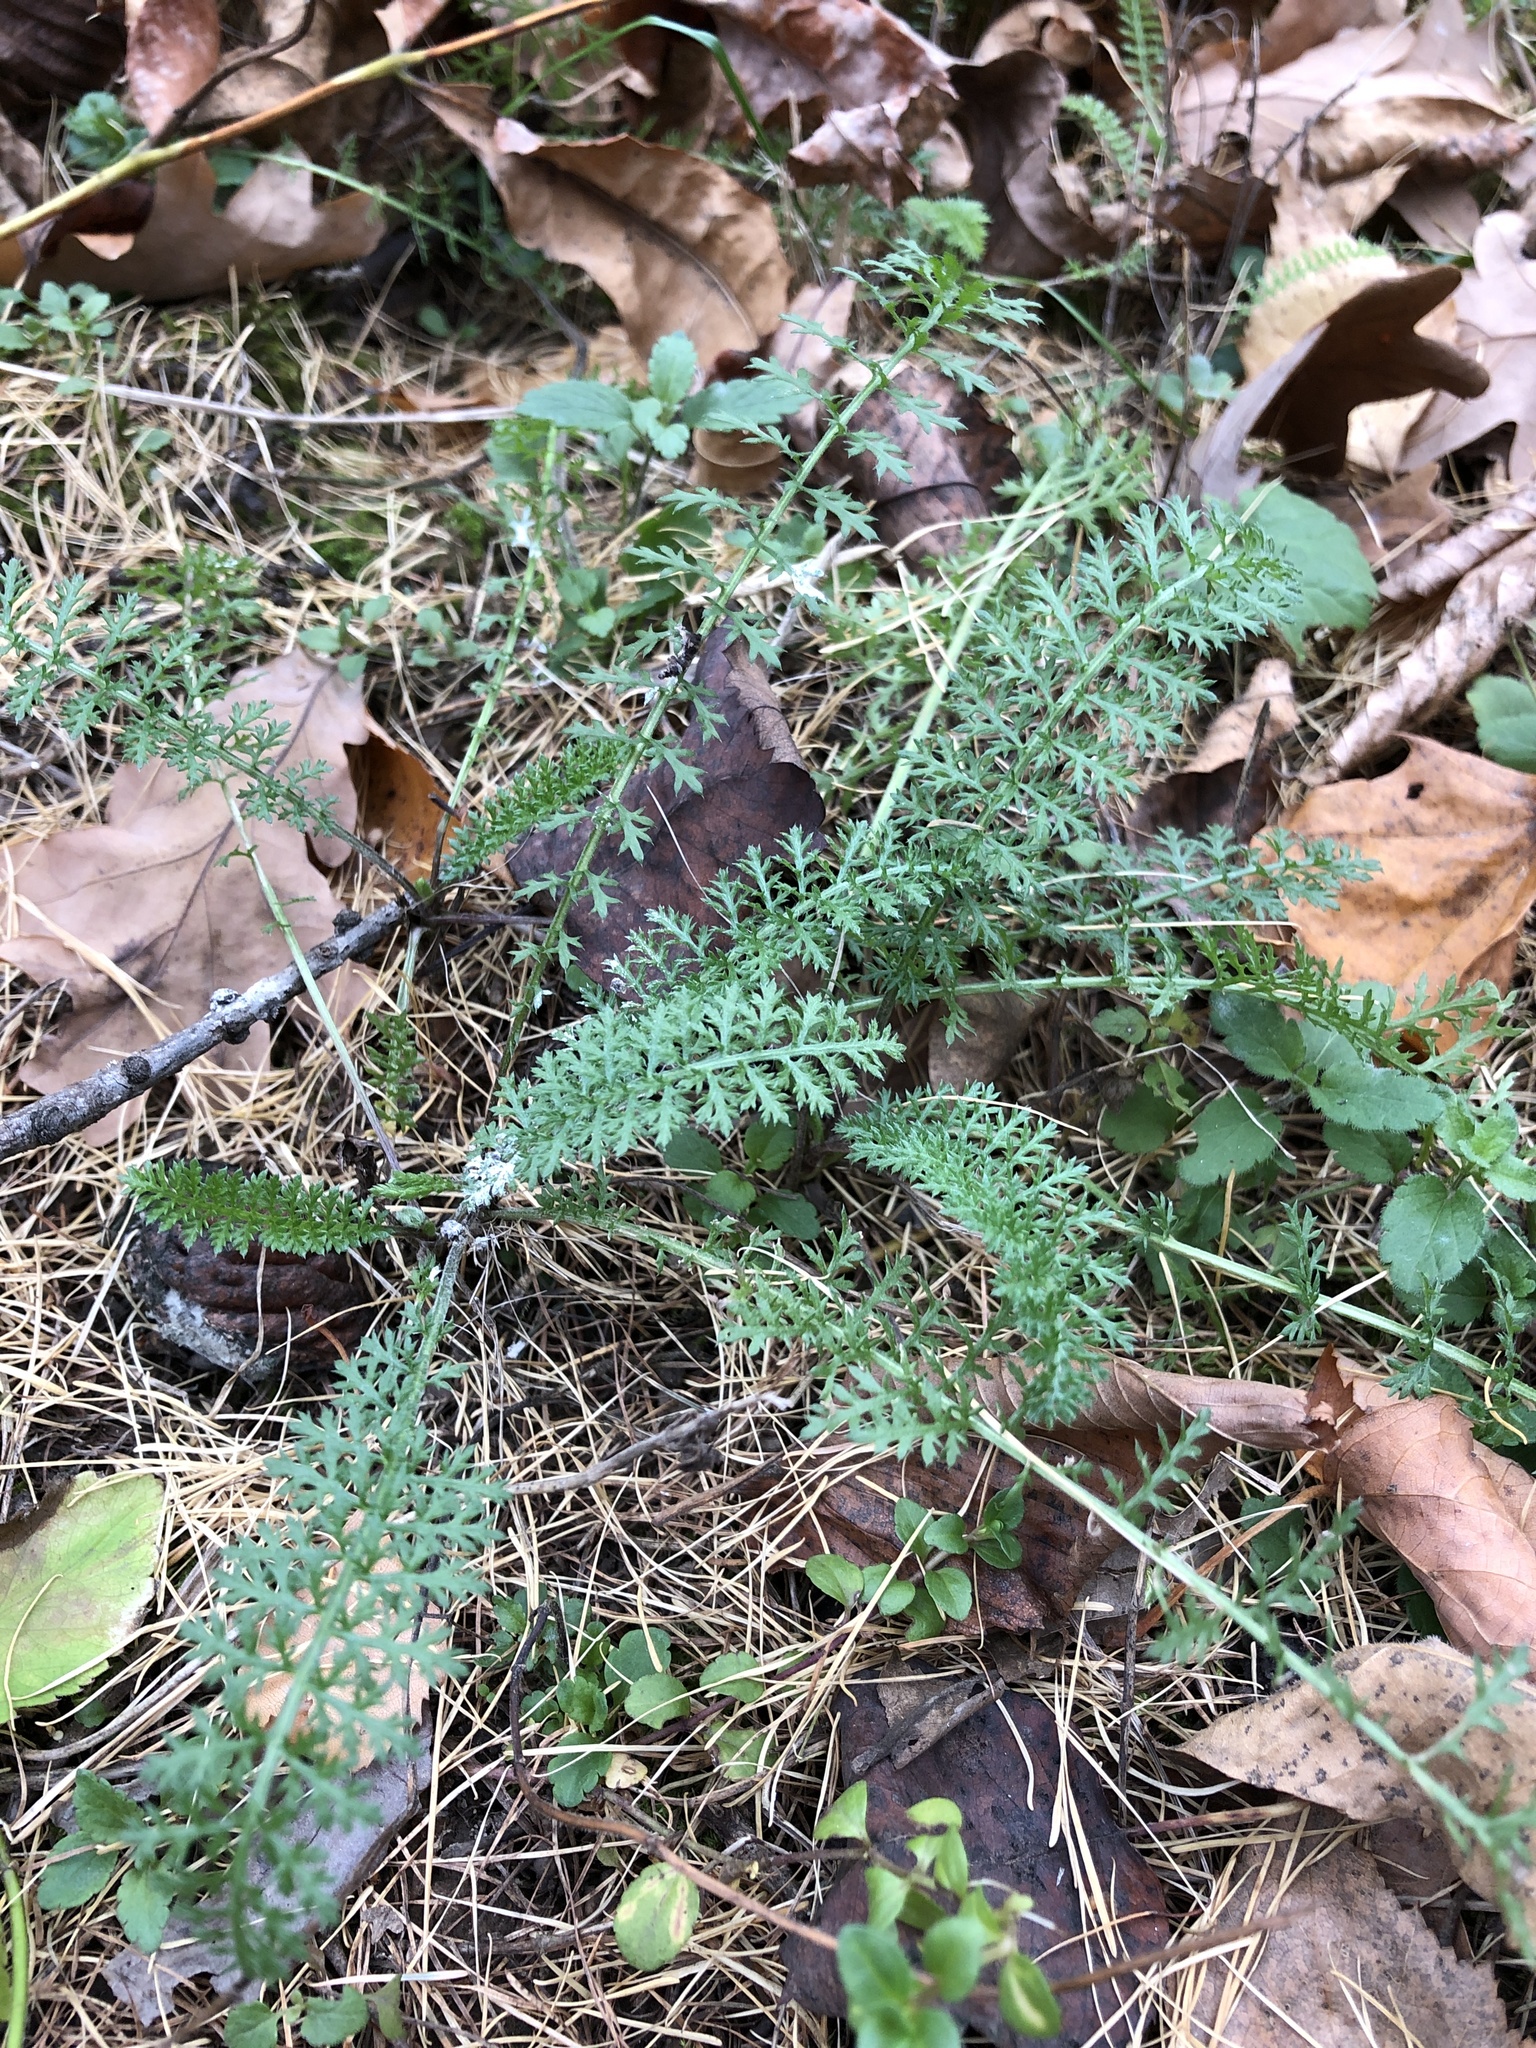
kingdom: Plantae
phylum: Tracheophyta
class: Magnoliopsida
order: Asterales
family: Asteraceae
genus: Achillea
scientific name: Achillea millefolium
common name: Yarrow
